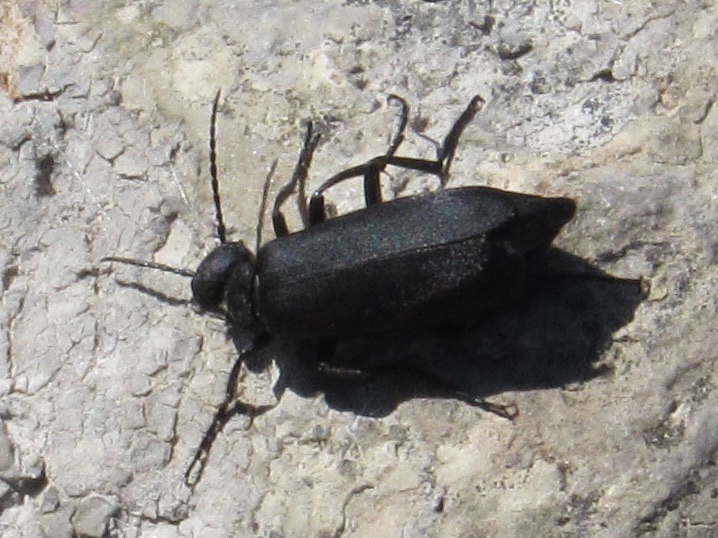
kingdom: Animalia
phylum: Arthropoda
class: Insecta
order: Coleoptera
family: Meloidae
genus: Epicauta
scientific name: Epicauta pensylvanica
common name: Black blister beetle
